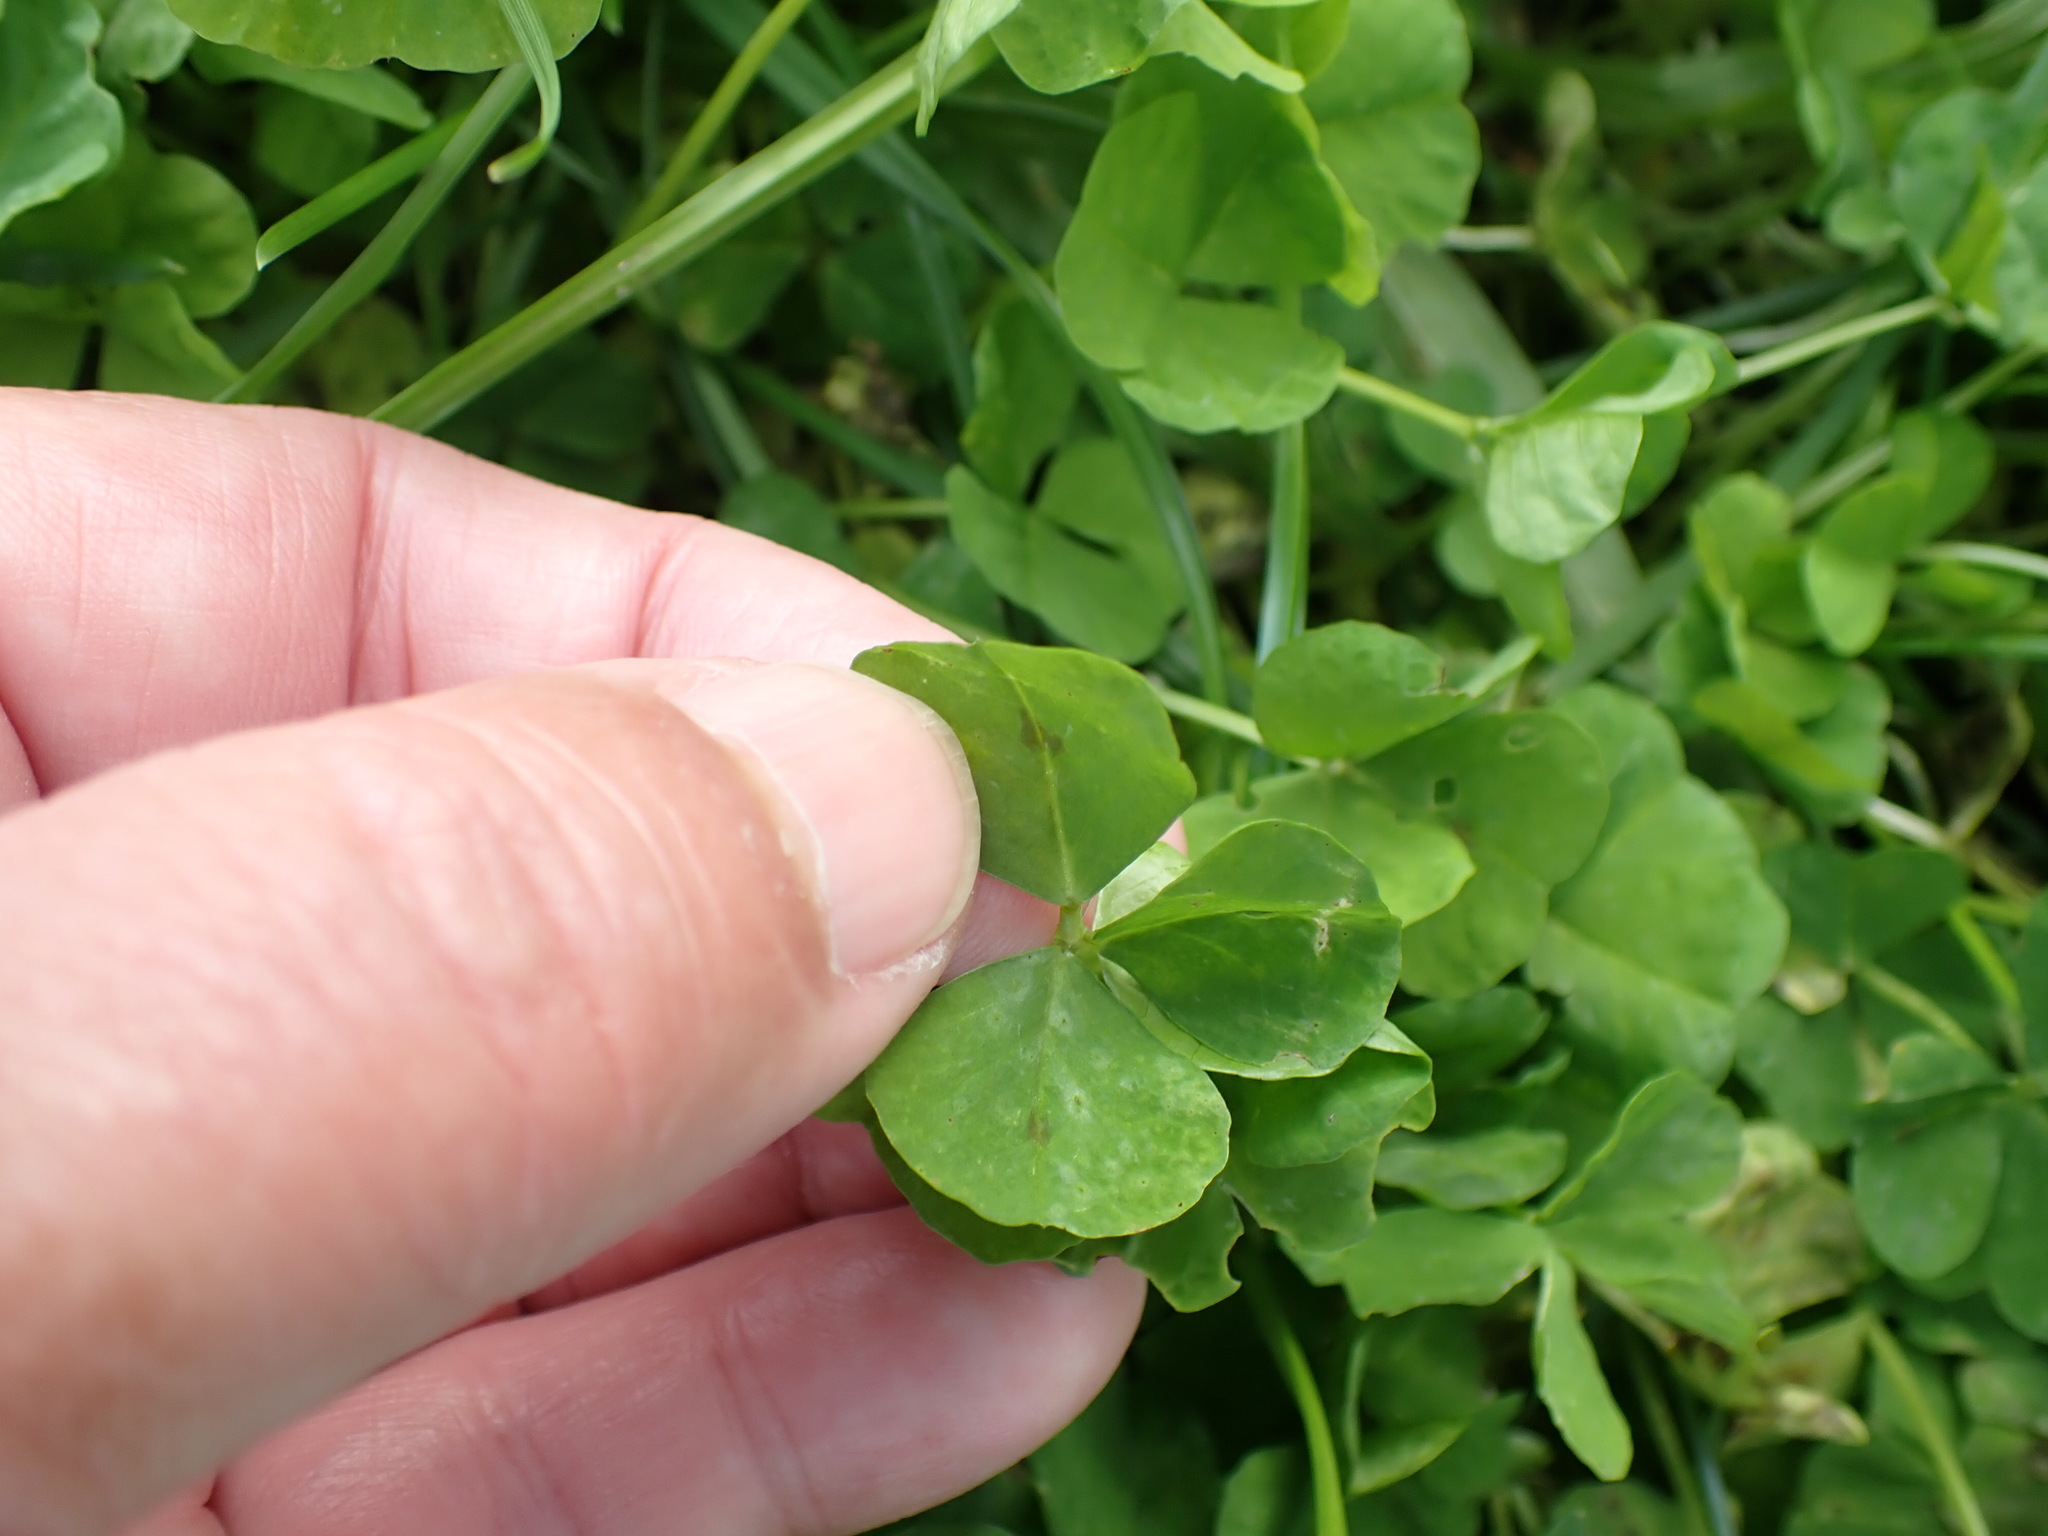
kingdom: Plantae
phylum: Tracheophyta
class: Magnoliopsida
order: Fabales
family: Fabaceae
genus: Medicago
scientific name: Medicago arabica
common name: Spotted medick
